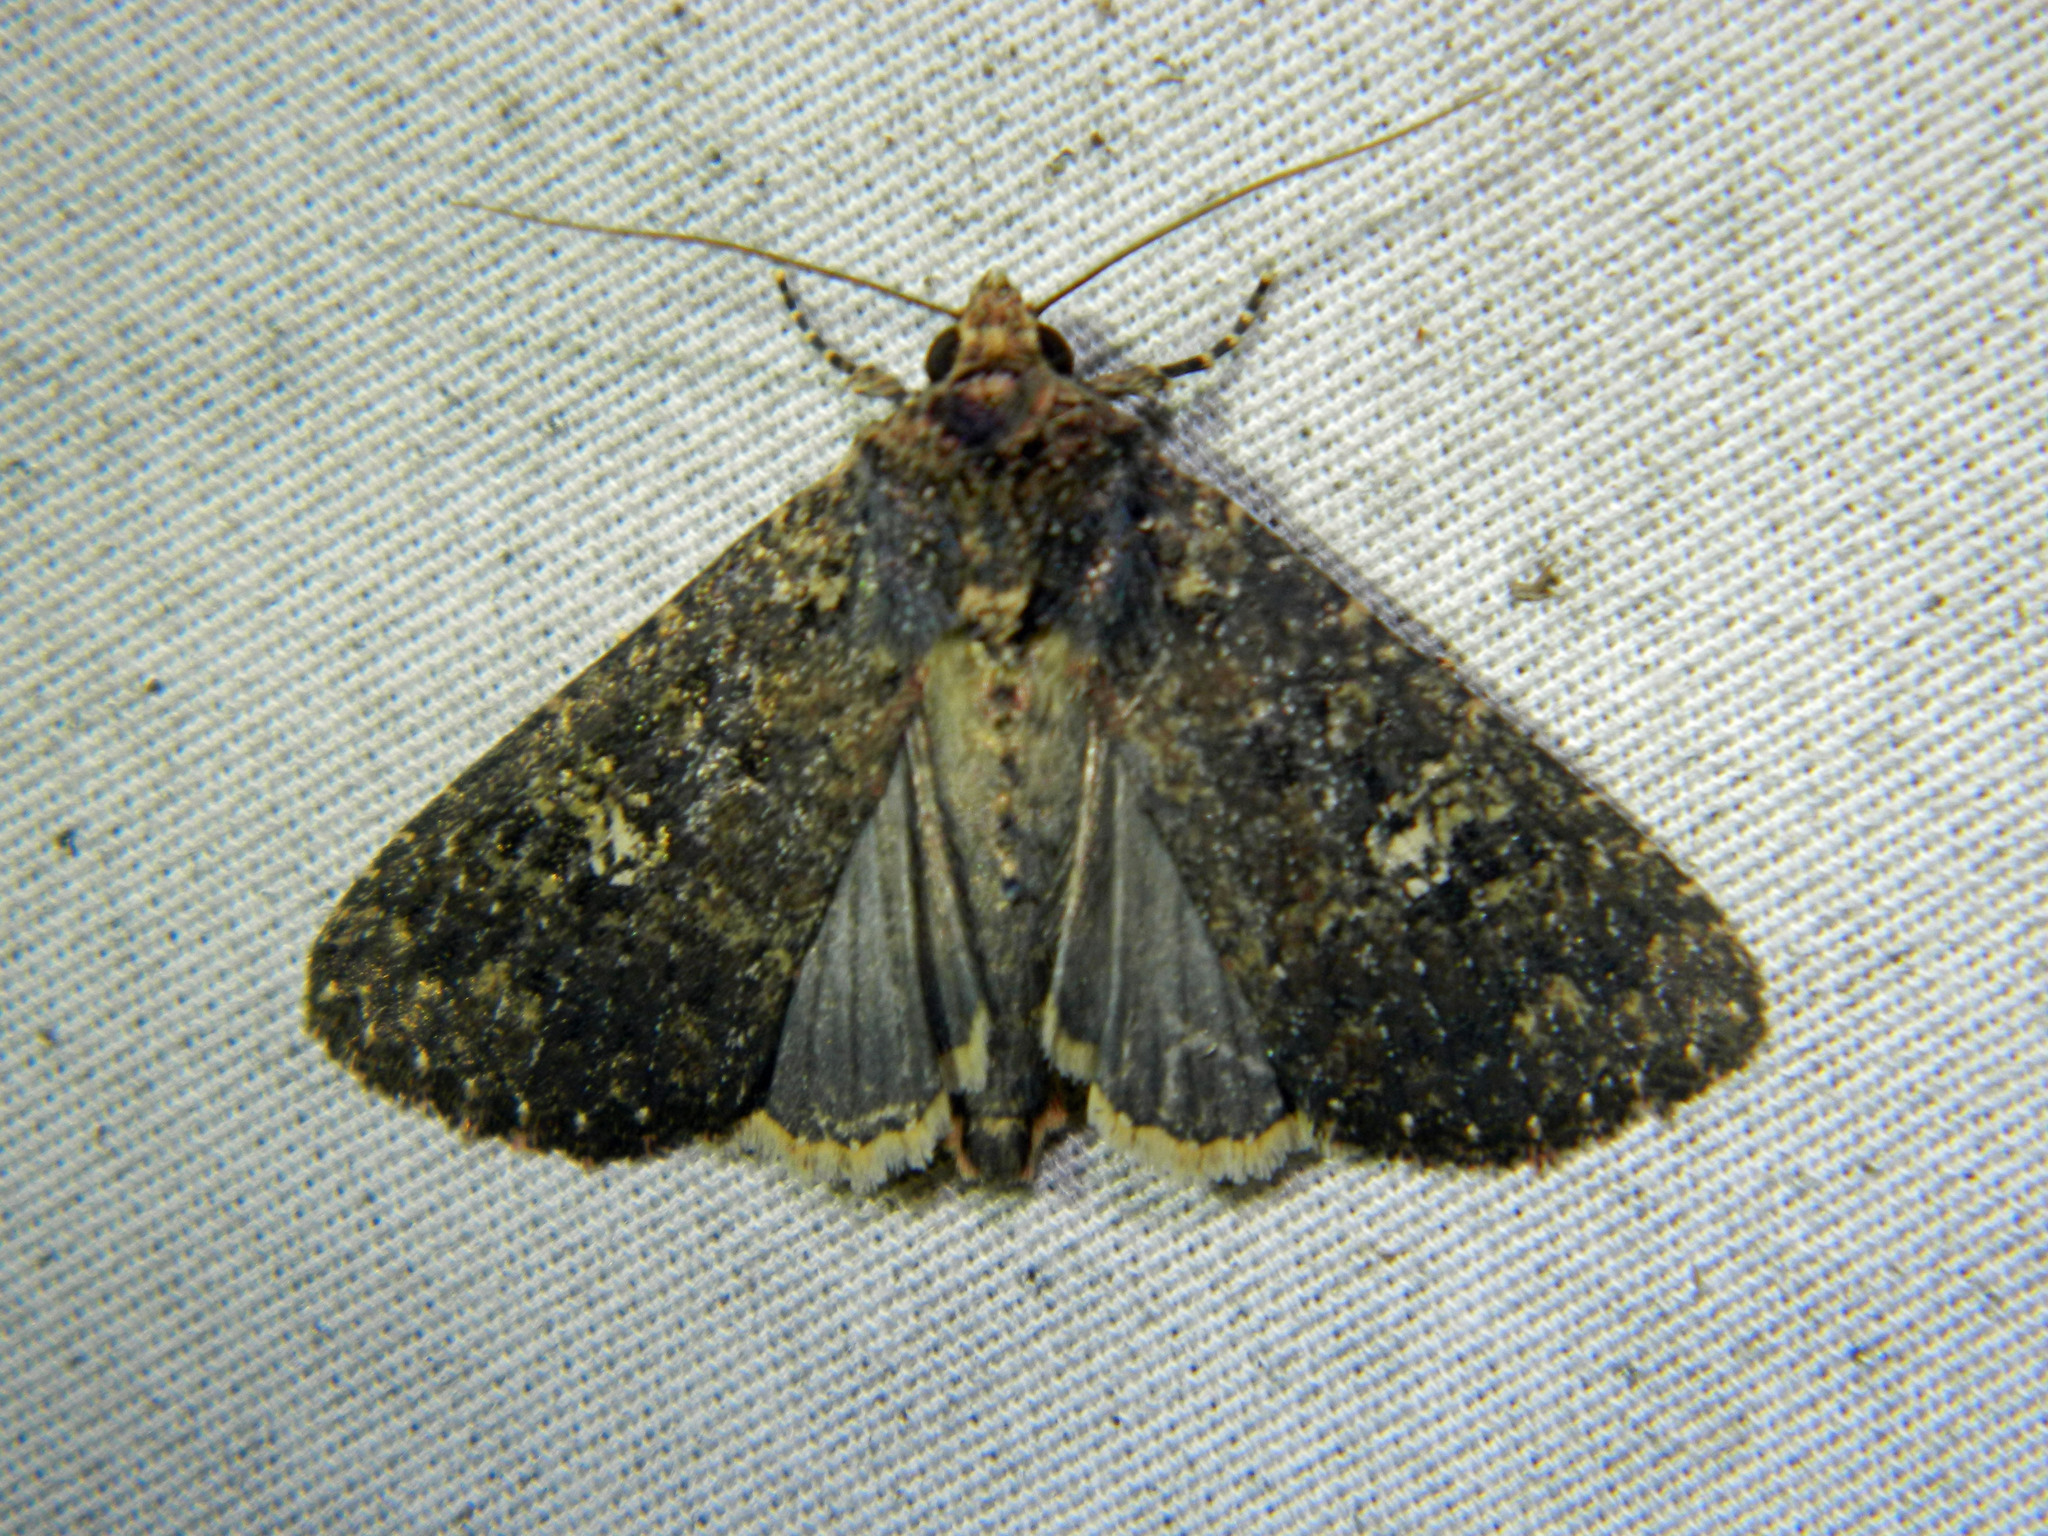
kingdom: Animalia
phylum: Arthropoda
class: Insecta
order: Lepidoptera
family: Noctuidae
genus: Condica
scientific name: Condica vecors
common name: Dusky groundling
